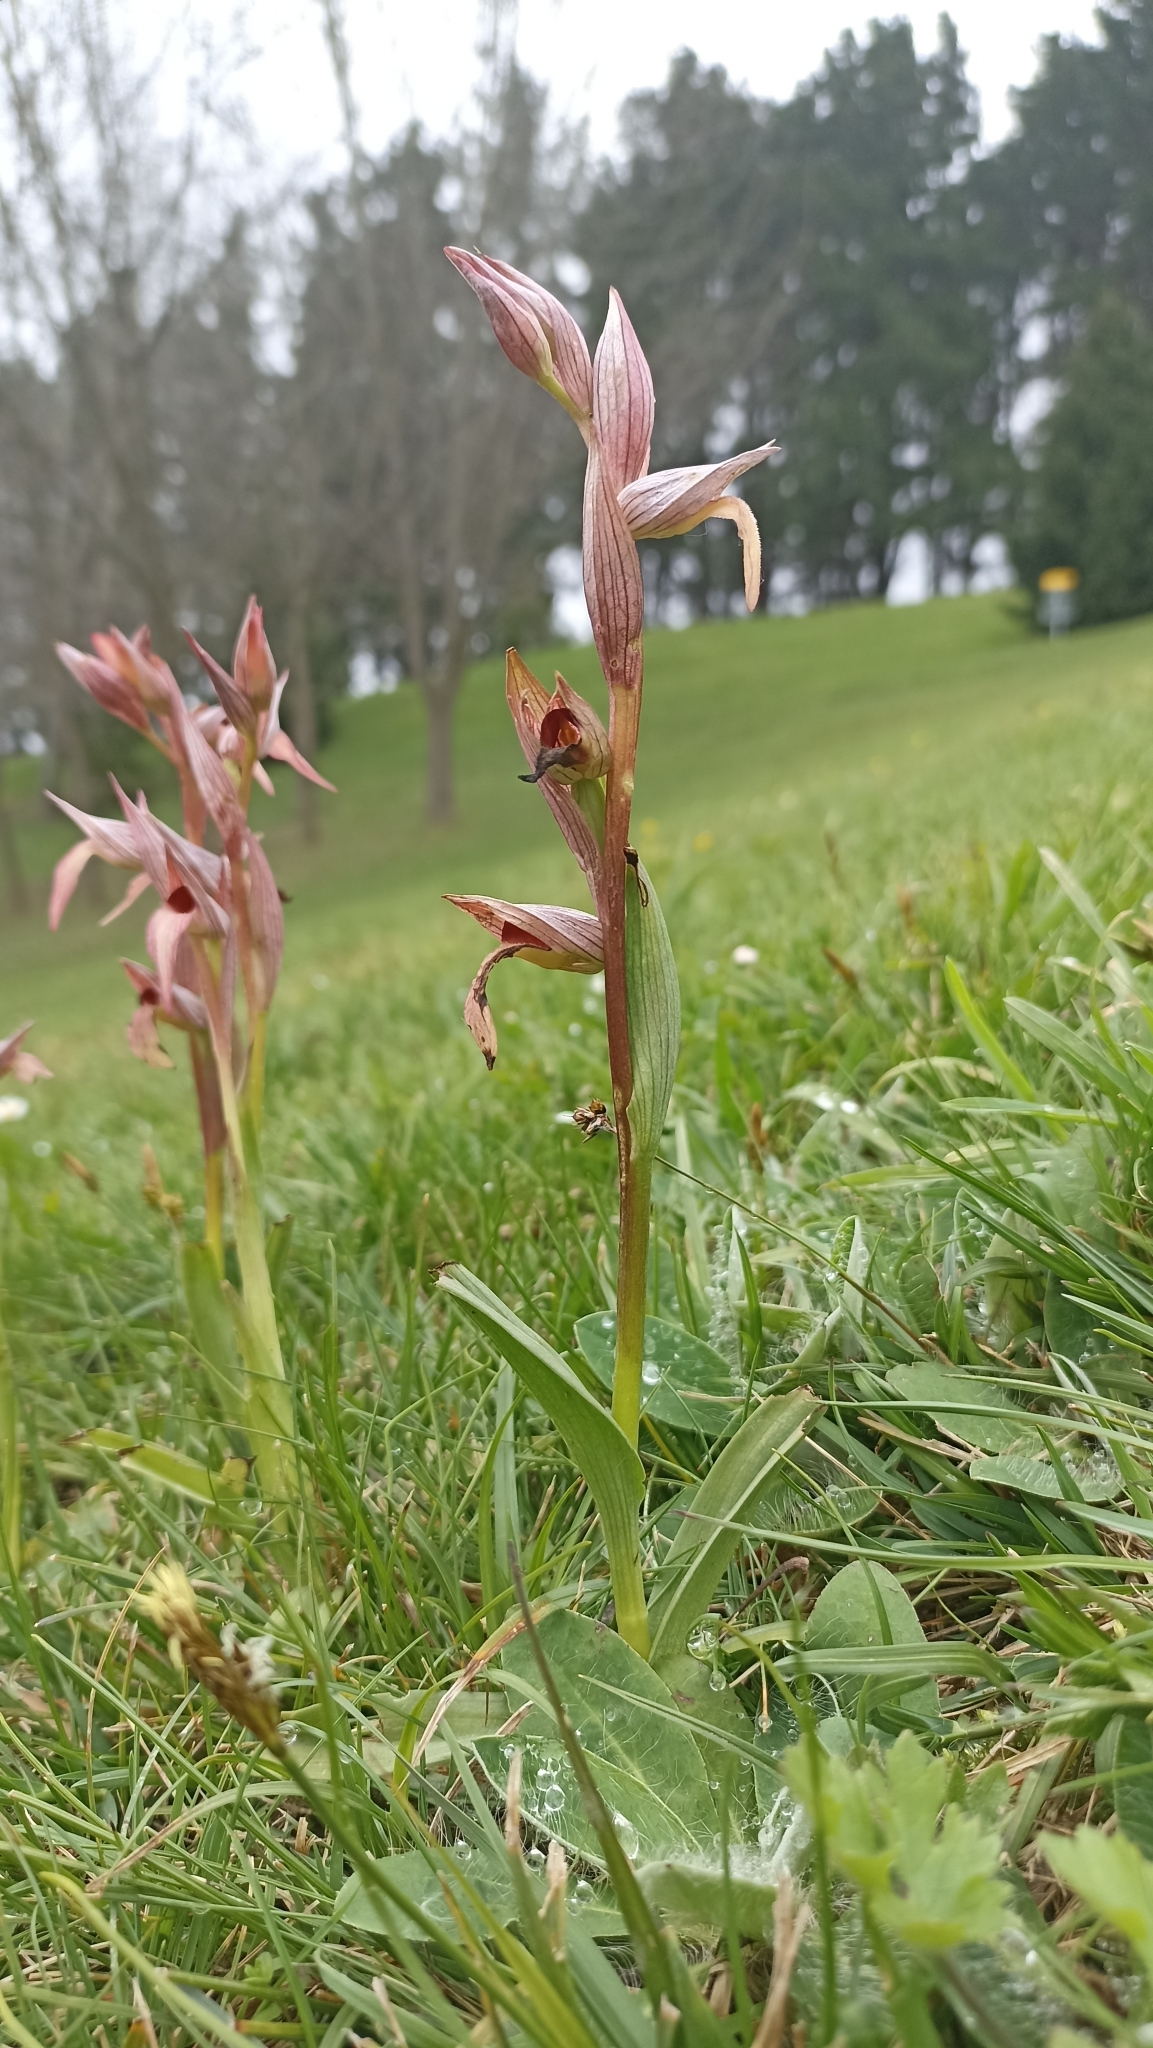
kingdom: Plantae
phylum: Tracheophyta
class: Liliopsida
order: Asparagales
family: Orchidaceae
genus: Serapias
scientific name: Serapias lingua
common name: Tongue-orchid
